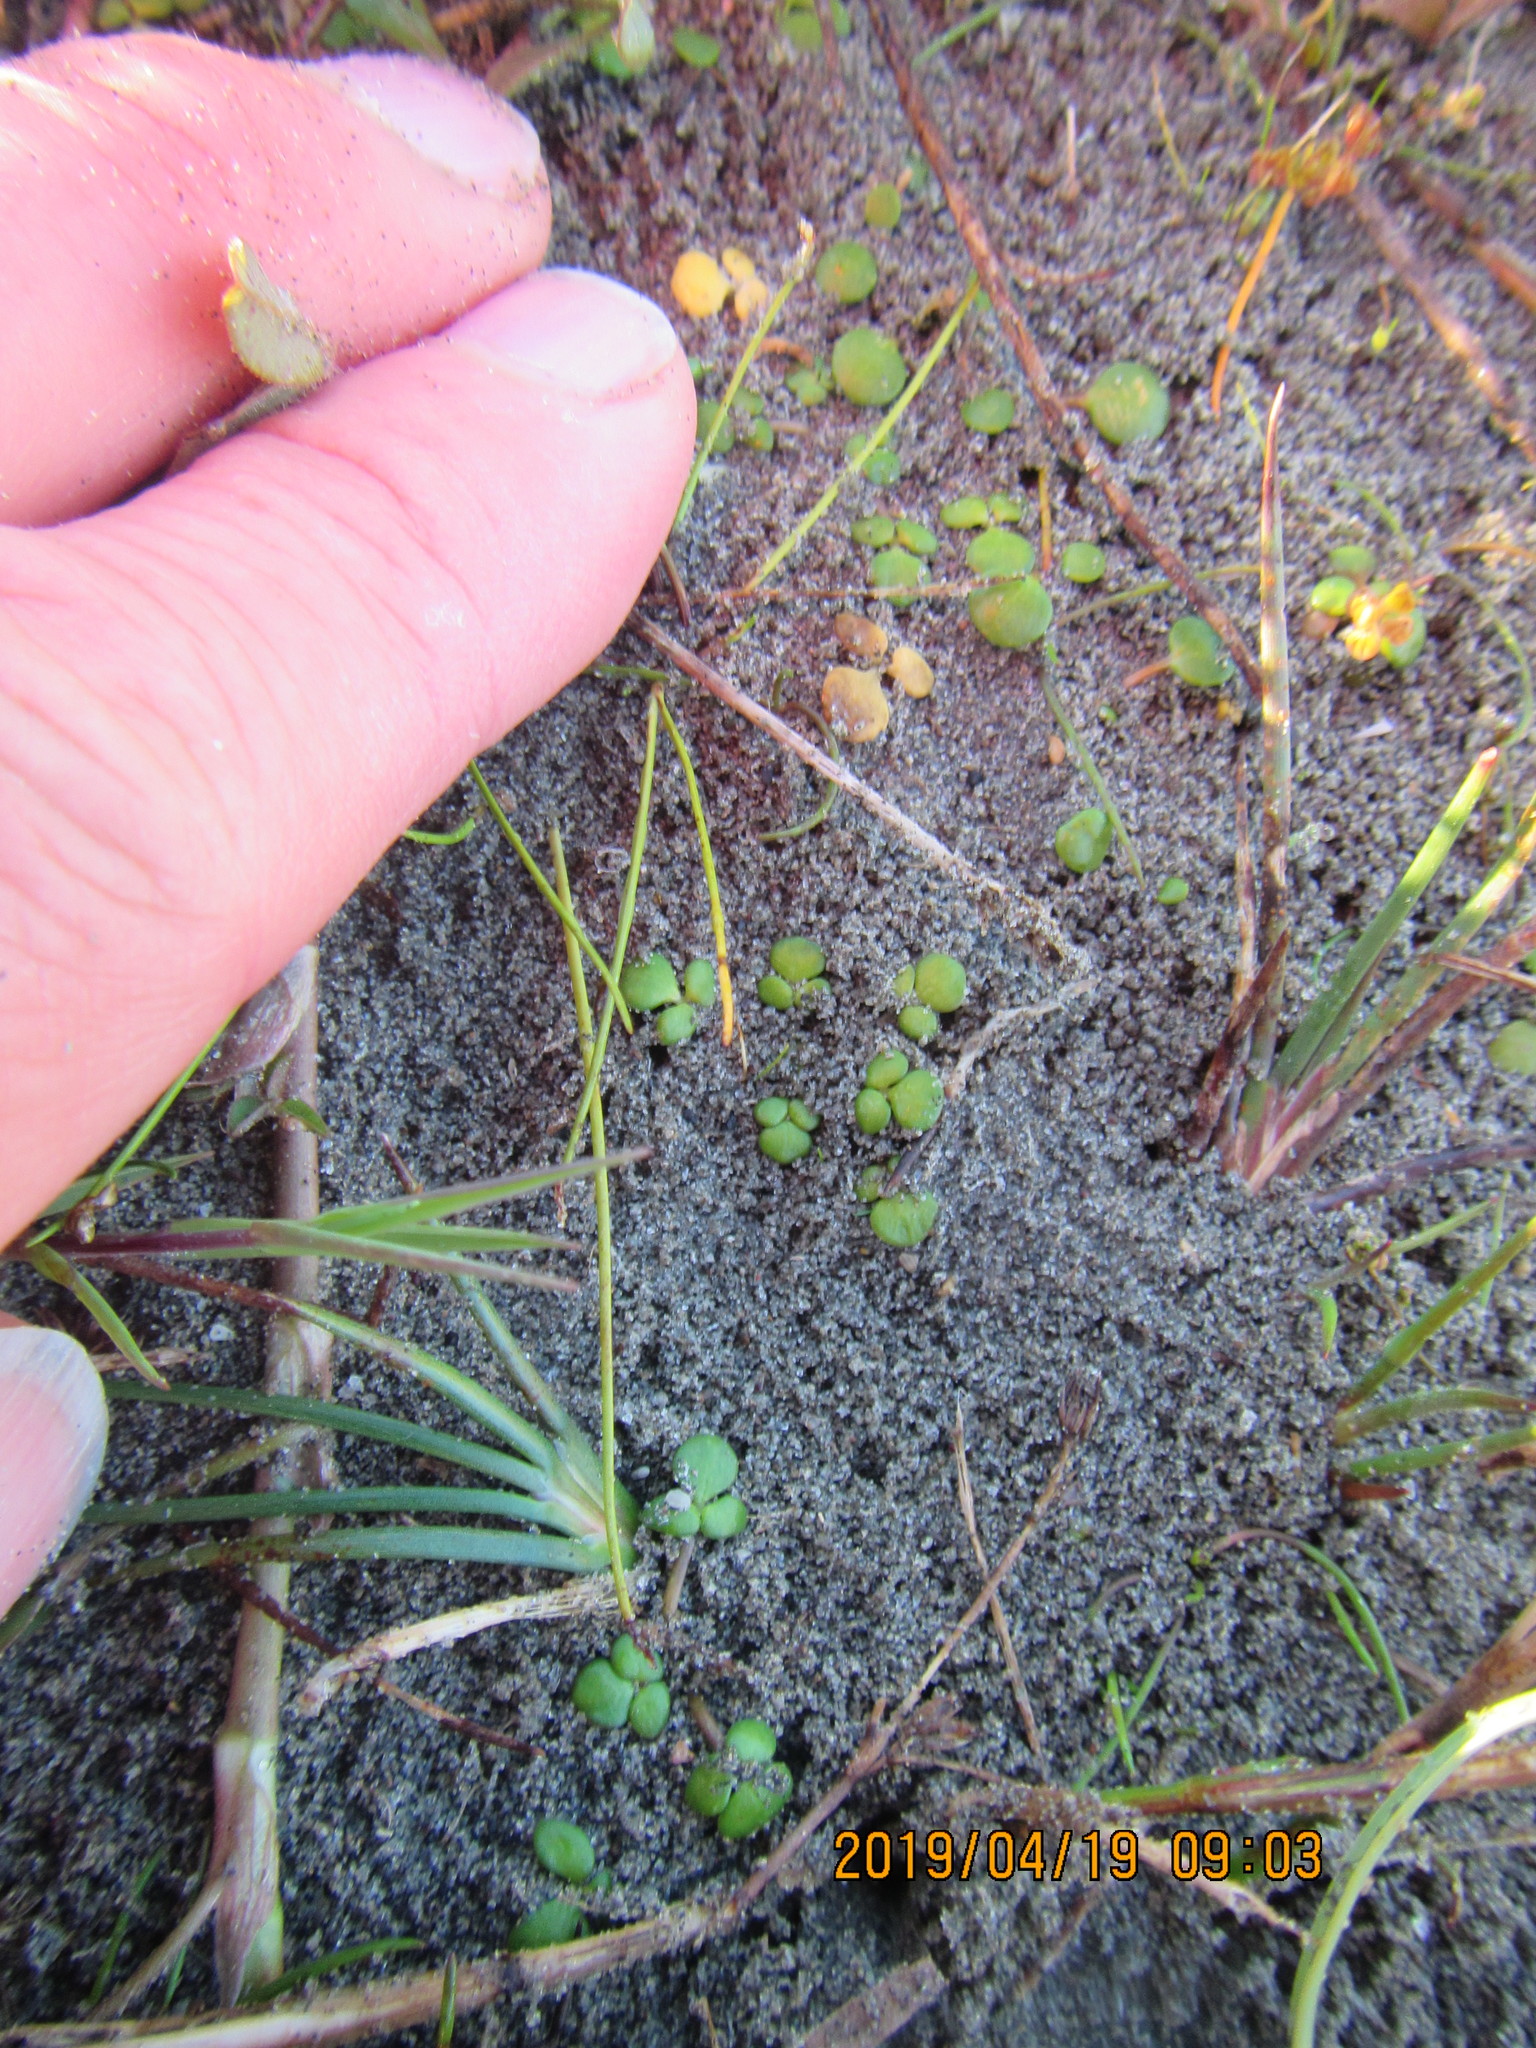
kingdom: Plantae
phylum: Tracheophyta
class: Magnoliopsida
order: Ranunculales
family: Ranunculaceae
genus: Ranunculus
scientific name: Ranunculus acaulis
